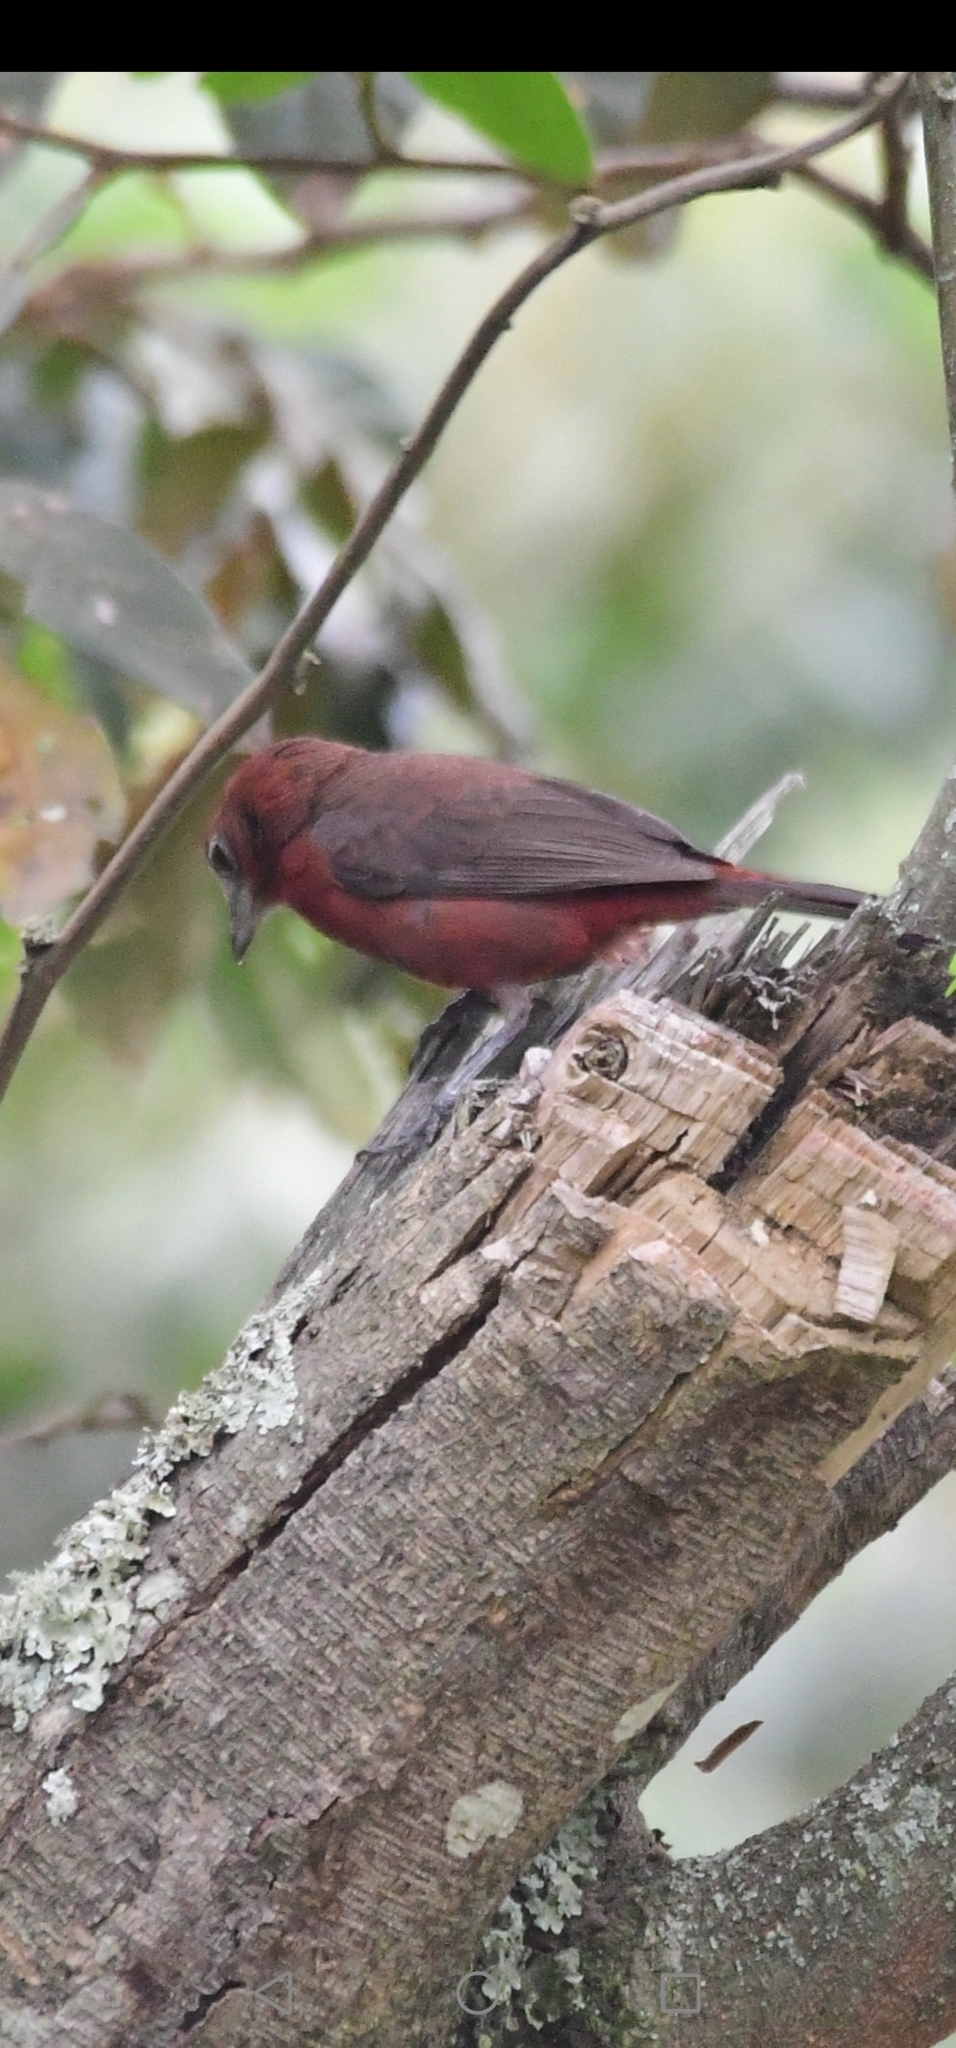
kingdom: Animalia
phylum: Chordata
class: Aves
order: Passeriformes
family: Thraupidae
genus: Coryphospingus
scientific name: Coryphospingus cucullatus
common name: Red pileated finch
